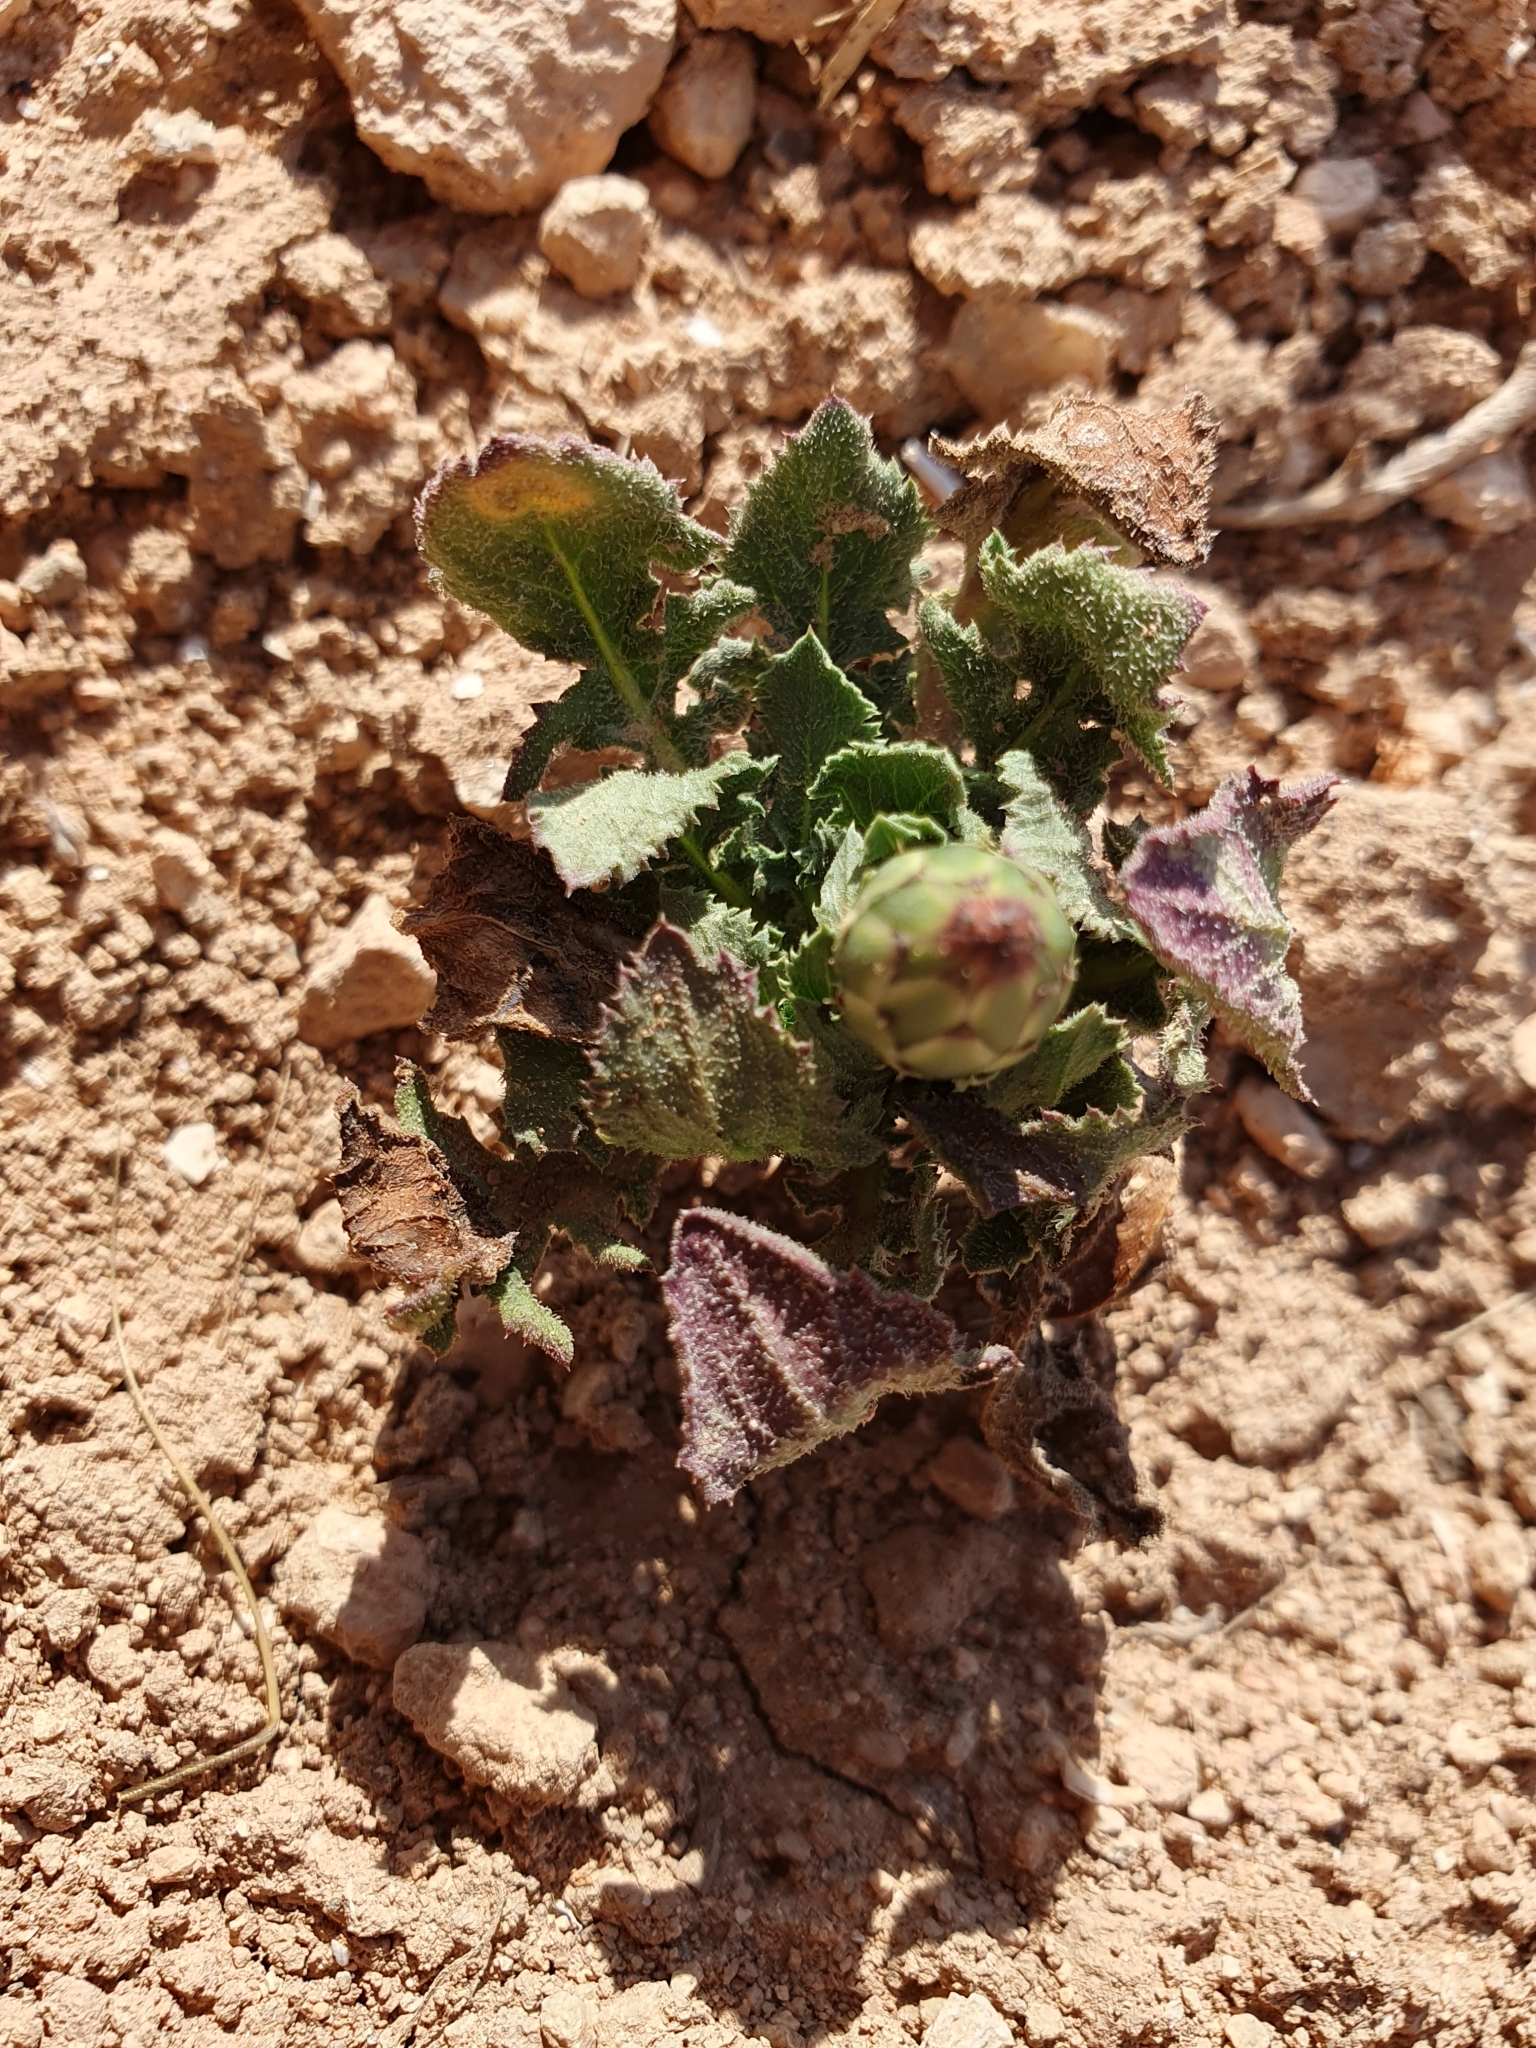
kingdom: Plantae
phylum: Tracheophyta
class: Magnoliopsida
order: Asterales
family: Asteraceae
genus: Mantisalca
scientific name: Mantisalca salmantica
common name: Dagger flower
